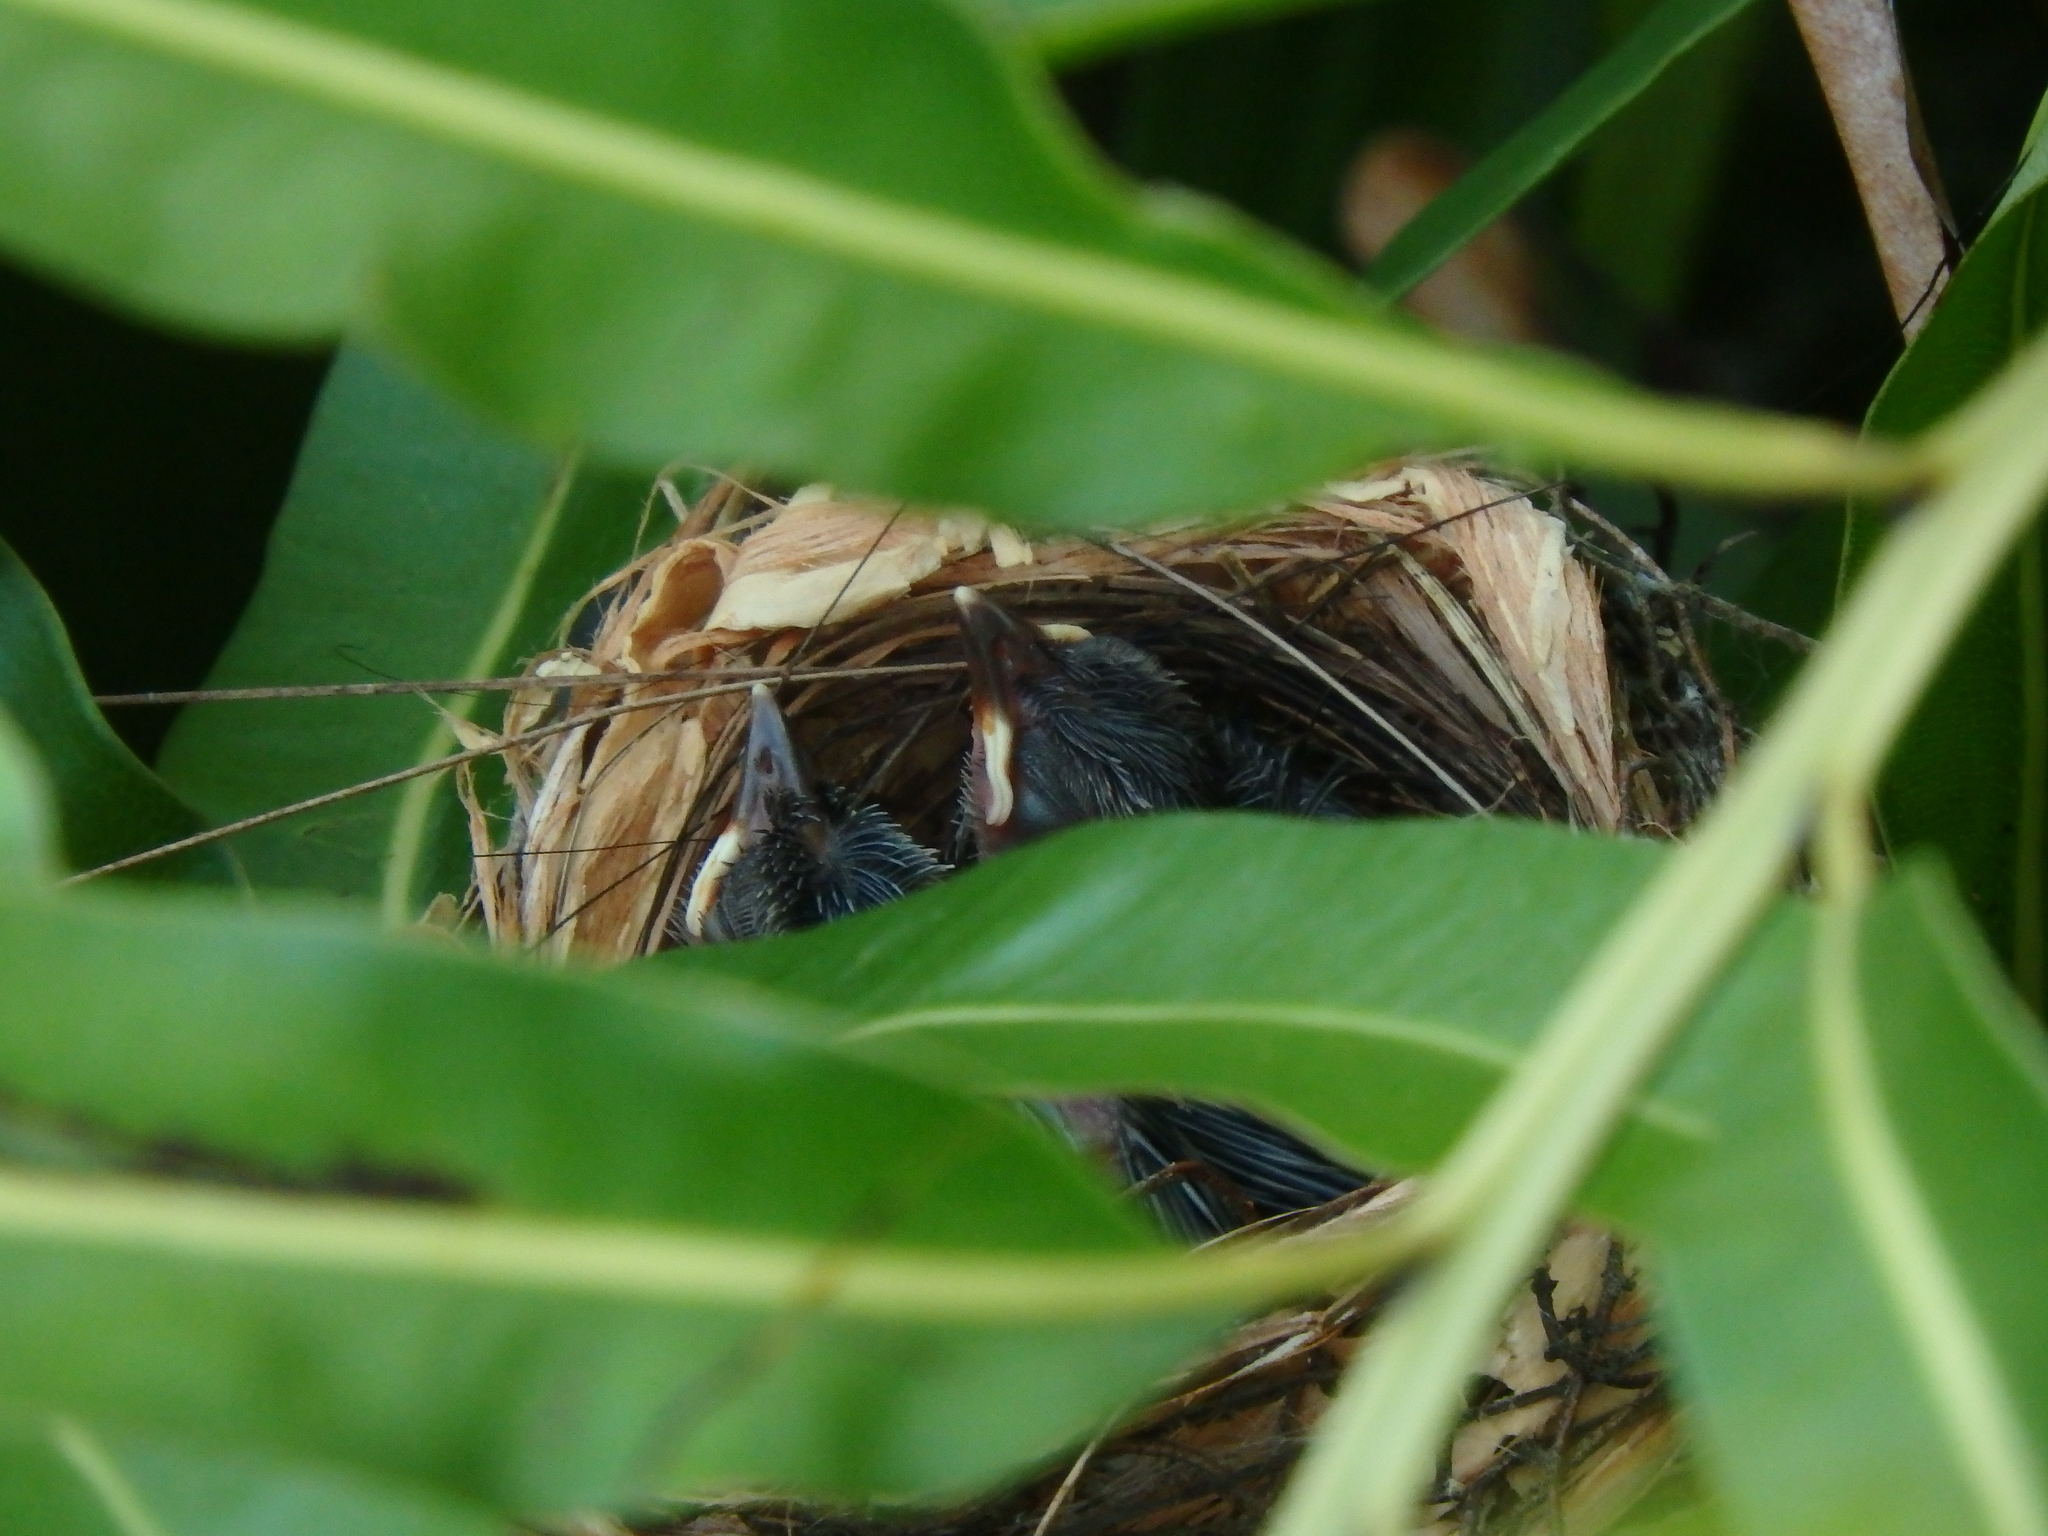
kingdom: Animalia
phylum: Chordata
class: Aves
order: Passeriformes
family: Pycnonotidae
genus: Pycnonotus
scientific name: Pycnonotus goiavier
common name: Yellow-vented bulbul
